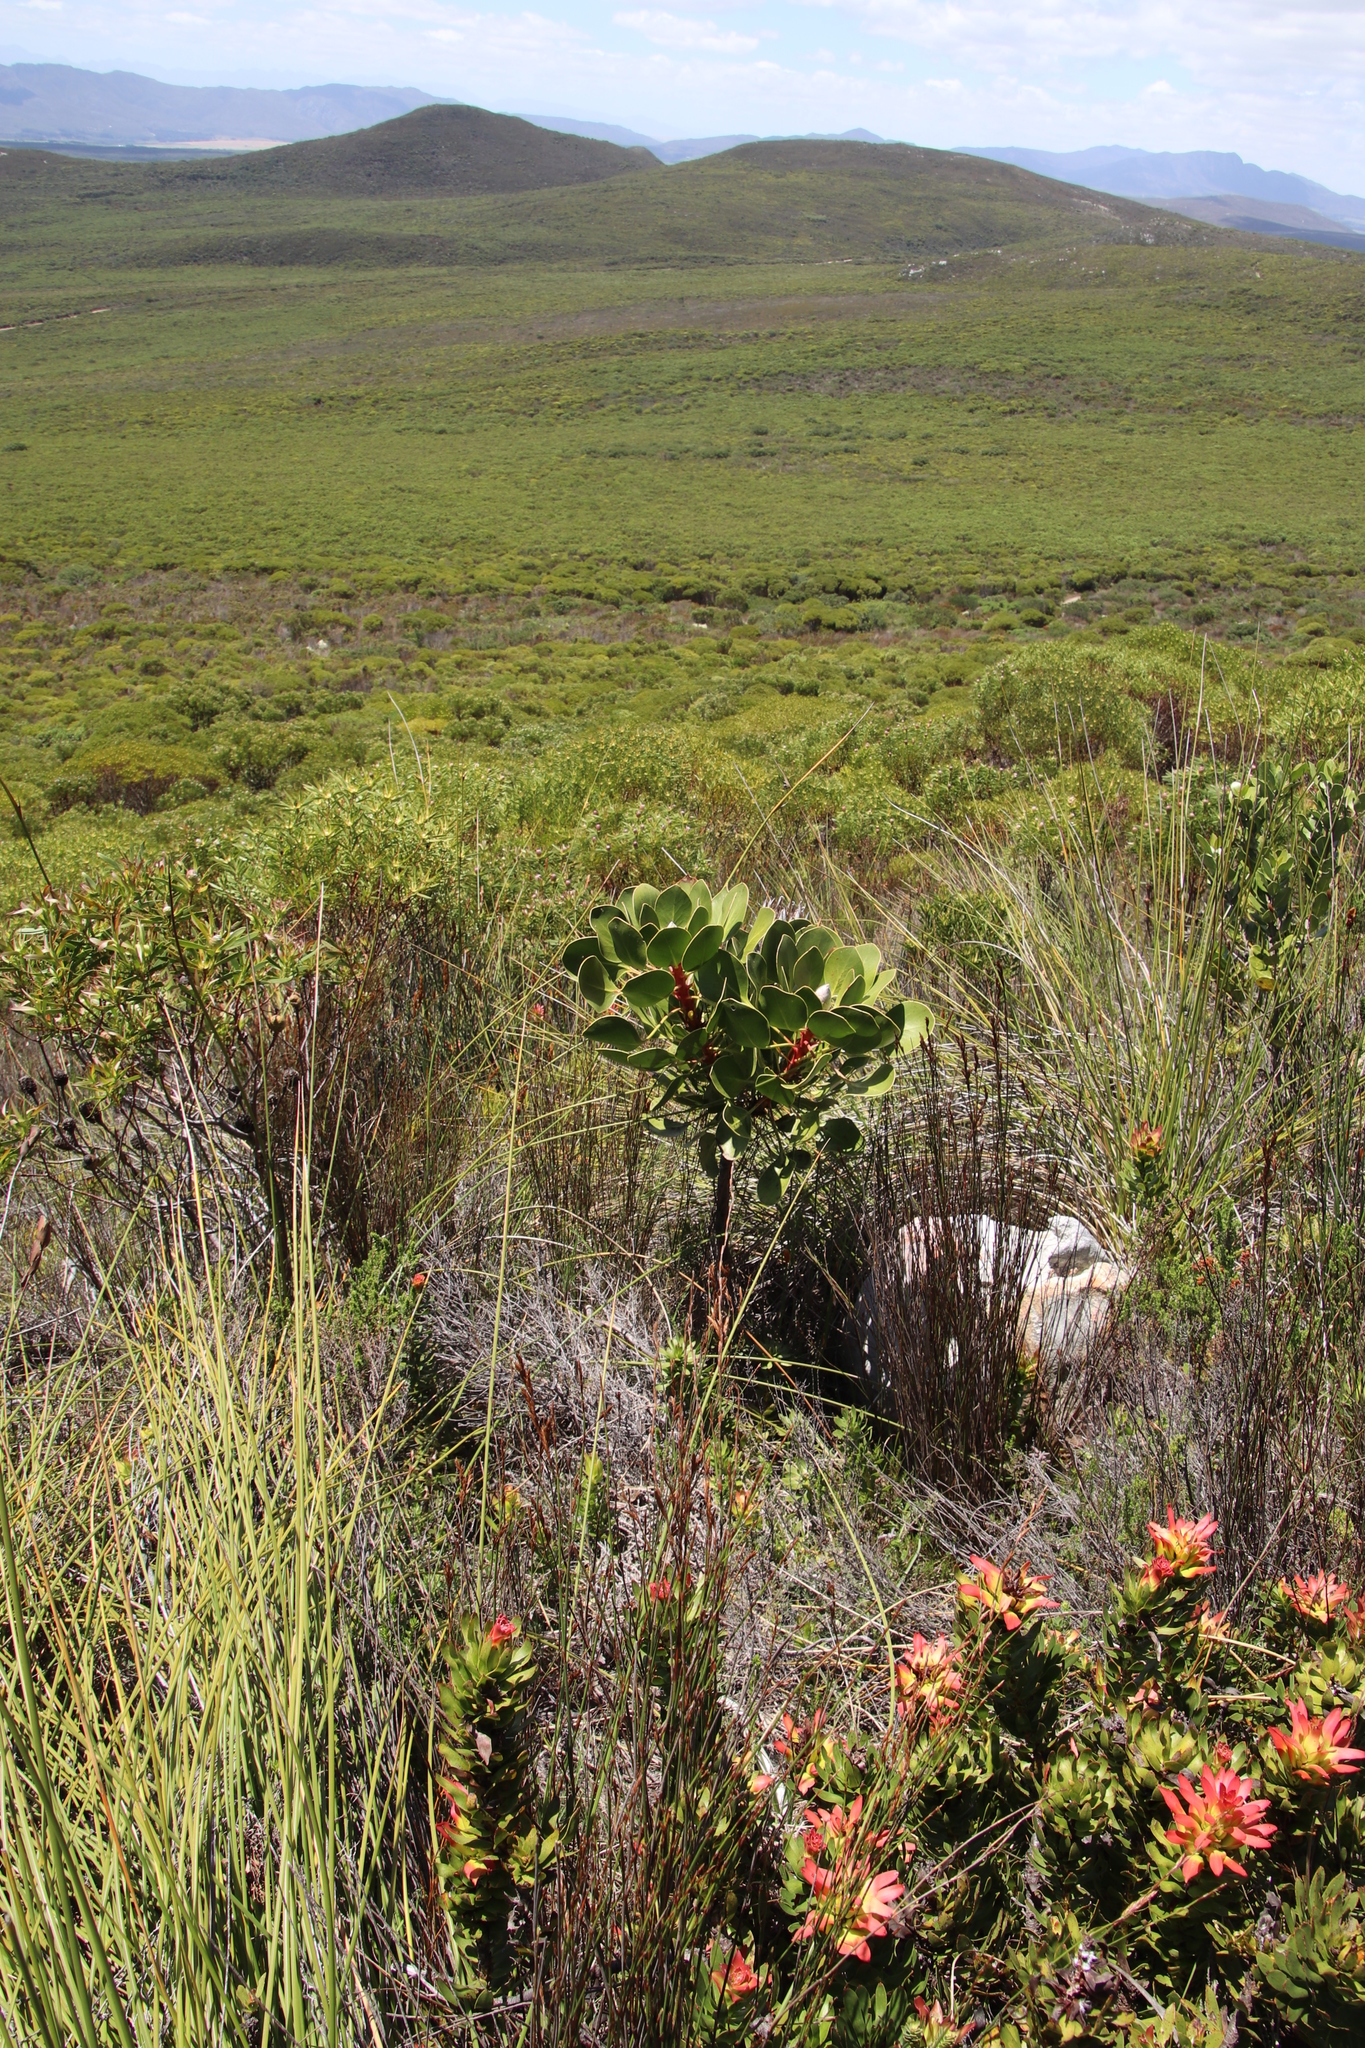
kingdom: Plantae
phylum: Tracheophyta
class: Magnoliopsida
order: Proteales
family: Proteaceae
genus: Protea
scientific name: Protea cynaroides
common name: King protea
